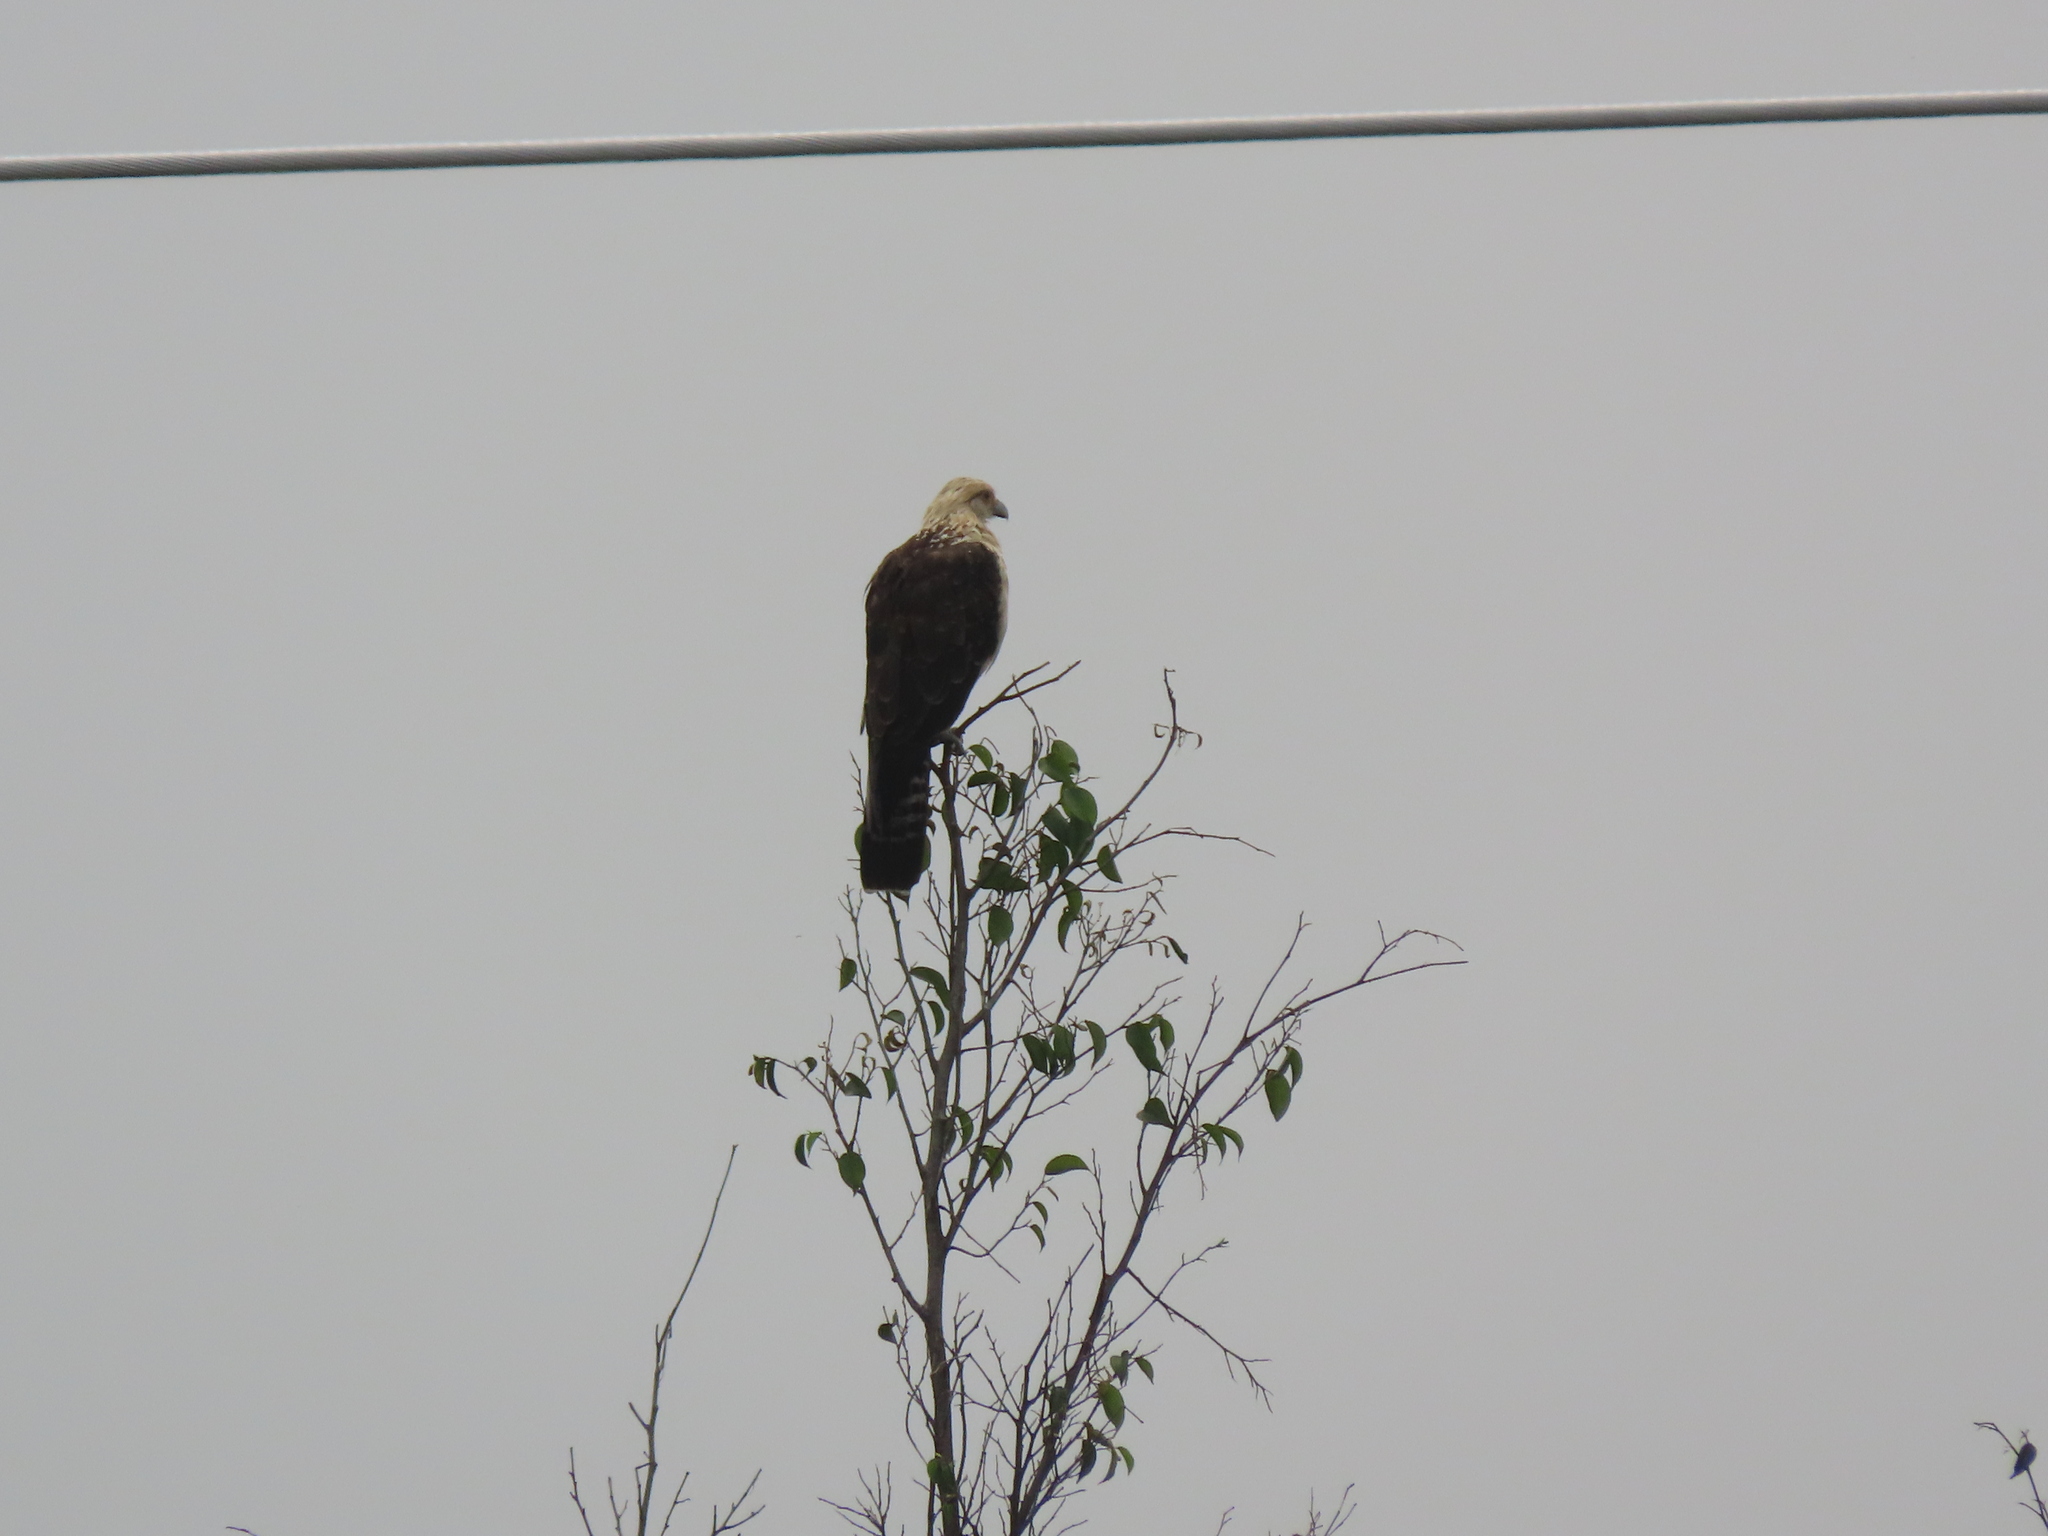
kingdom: Animalia
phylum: Chordata
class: Aves
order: Falconiformes
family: Falconidae
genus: Daptrius
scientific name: Daptrius
